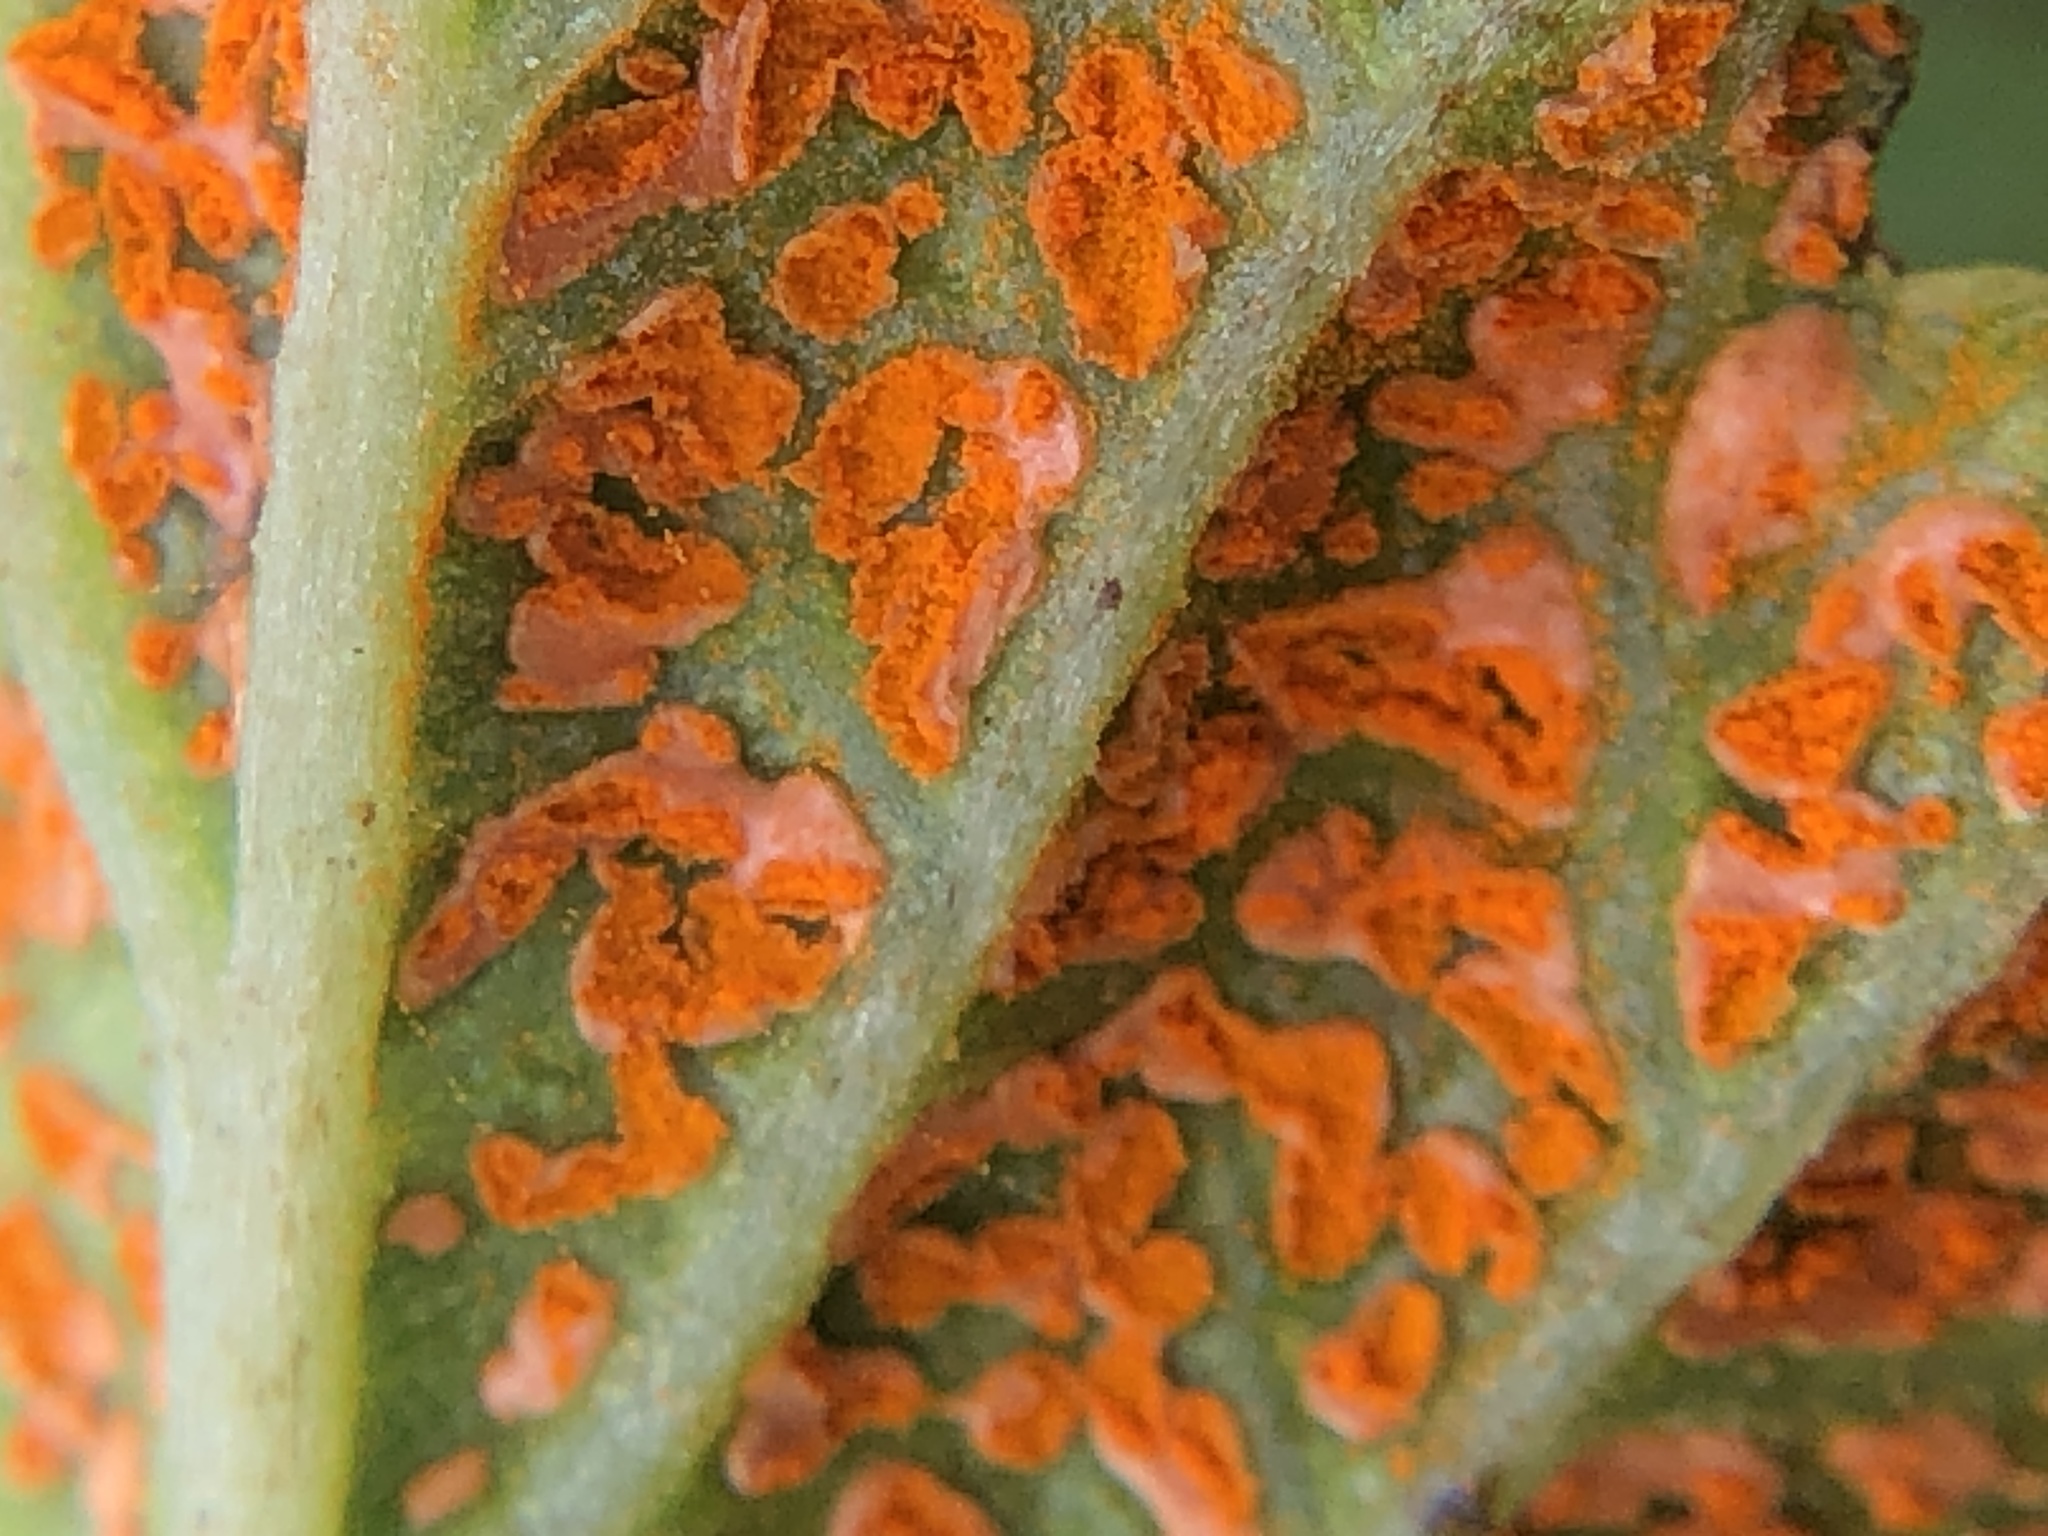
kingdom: Fungi
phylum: Basidiomycota
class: Pucciniomycetes
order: Pucciniales
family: Phragmidiaceae
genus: Arthuriomyces
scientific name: Arthuriomyces peckianus
